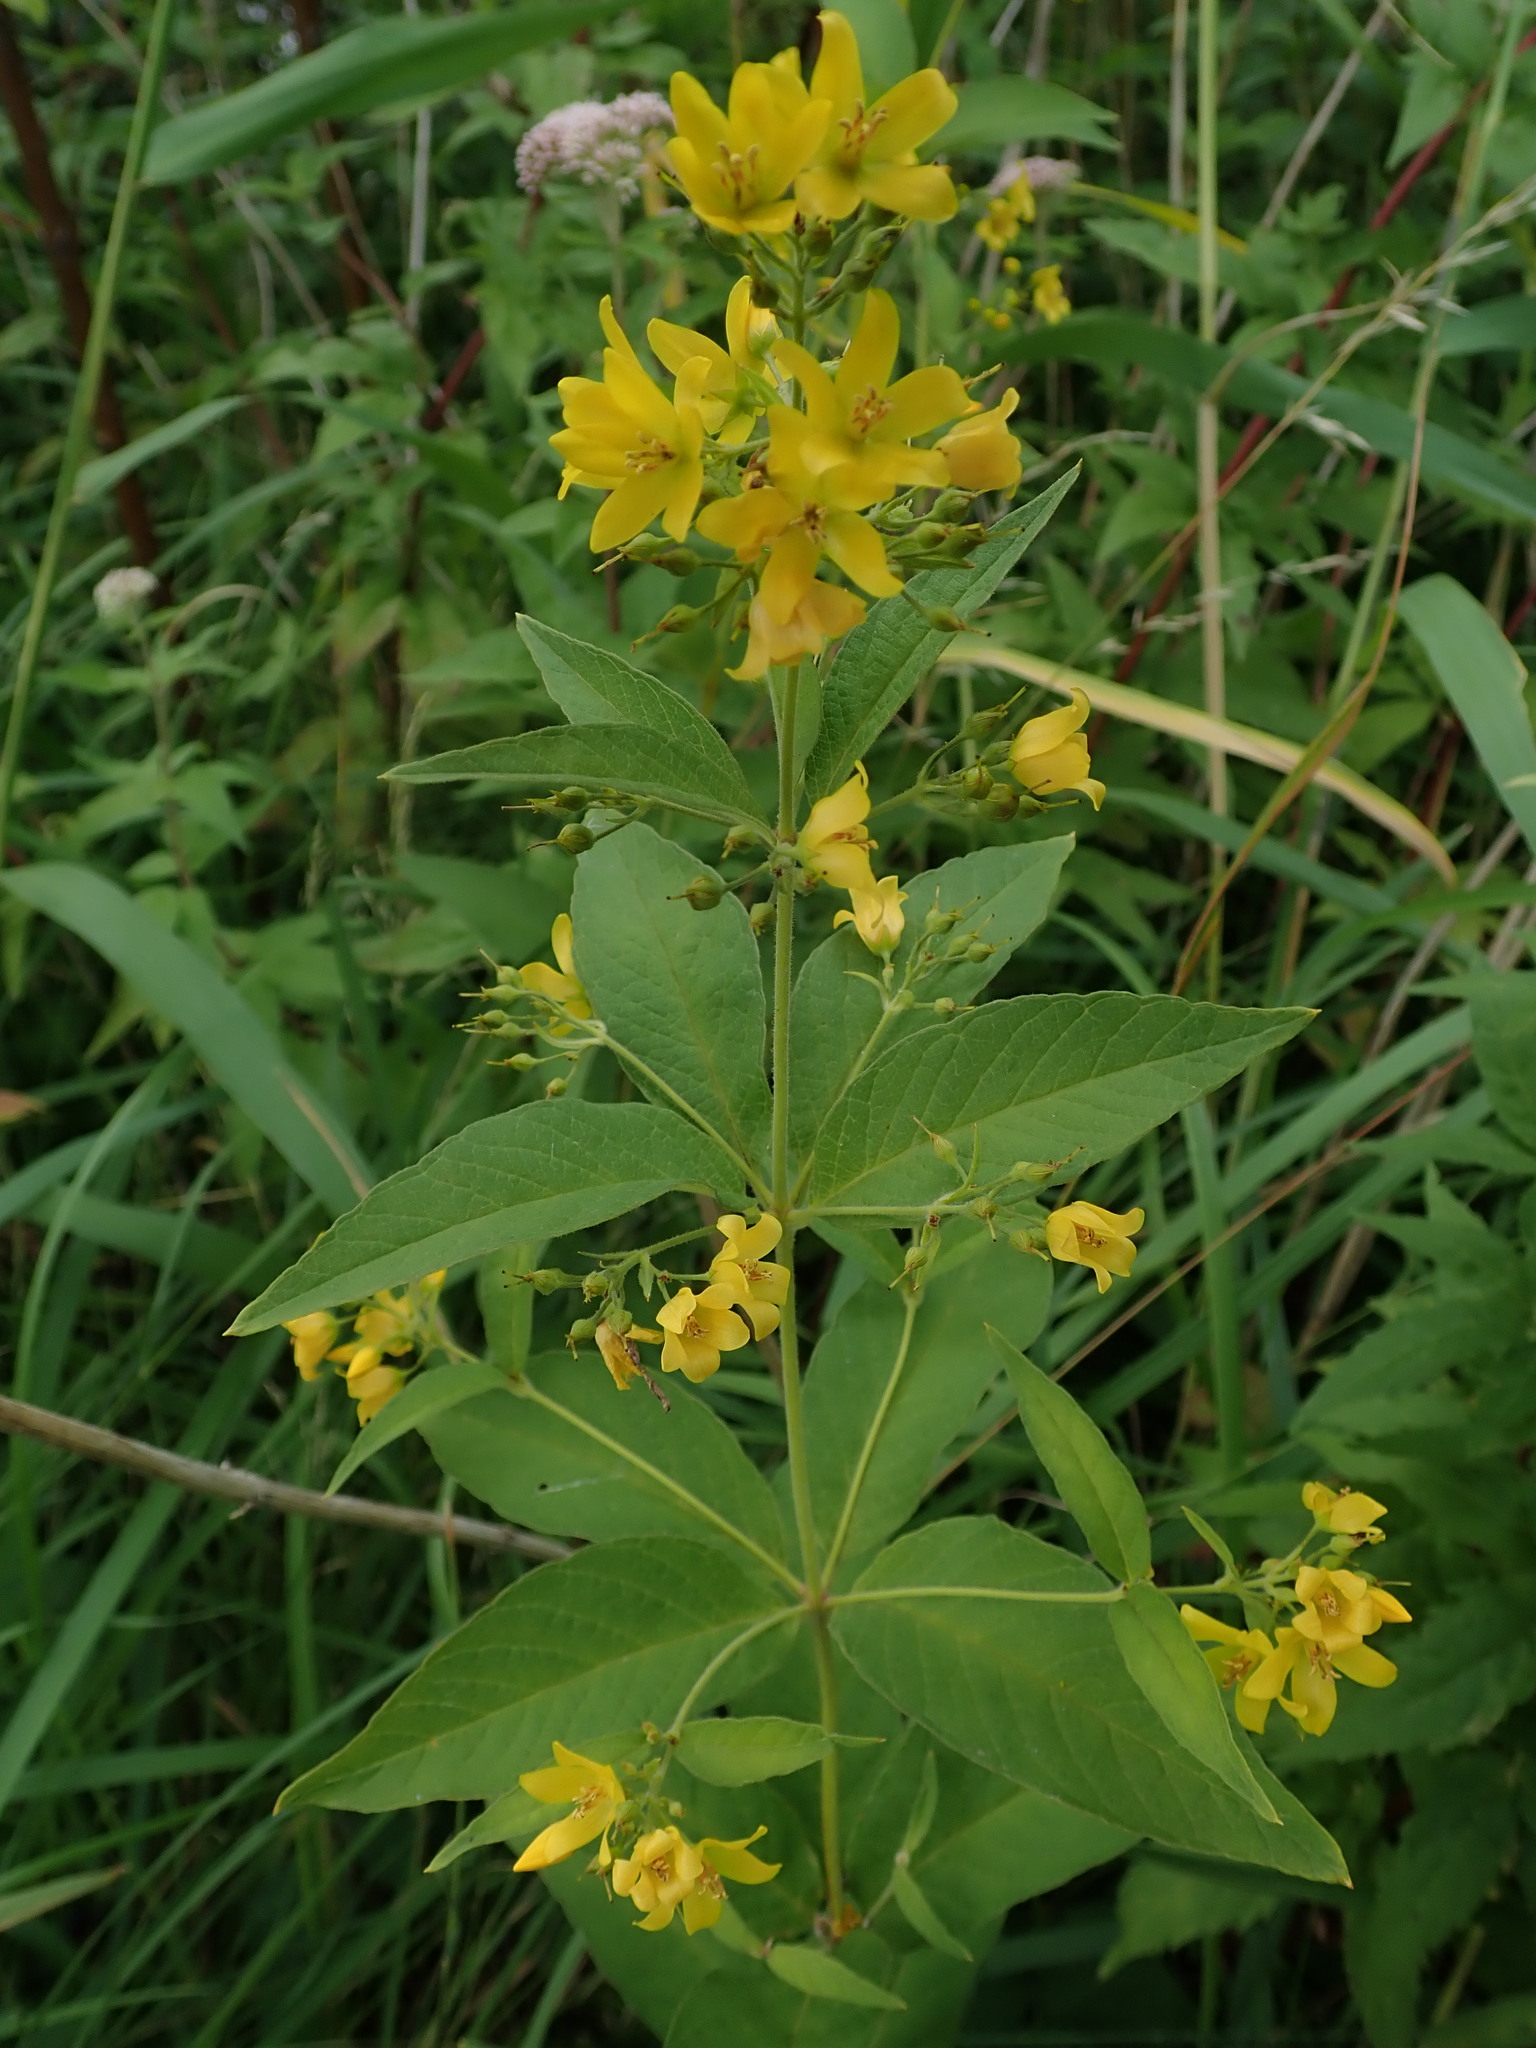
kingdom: Plantae
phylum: Tracheophyta
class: Magnoliopsida
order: Ericales
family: Primulaceae
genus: Lysimachia
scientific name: Lysimachia vulgaris
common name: Yellow loosestrife
